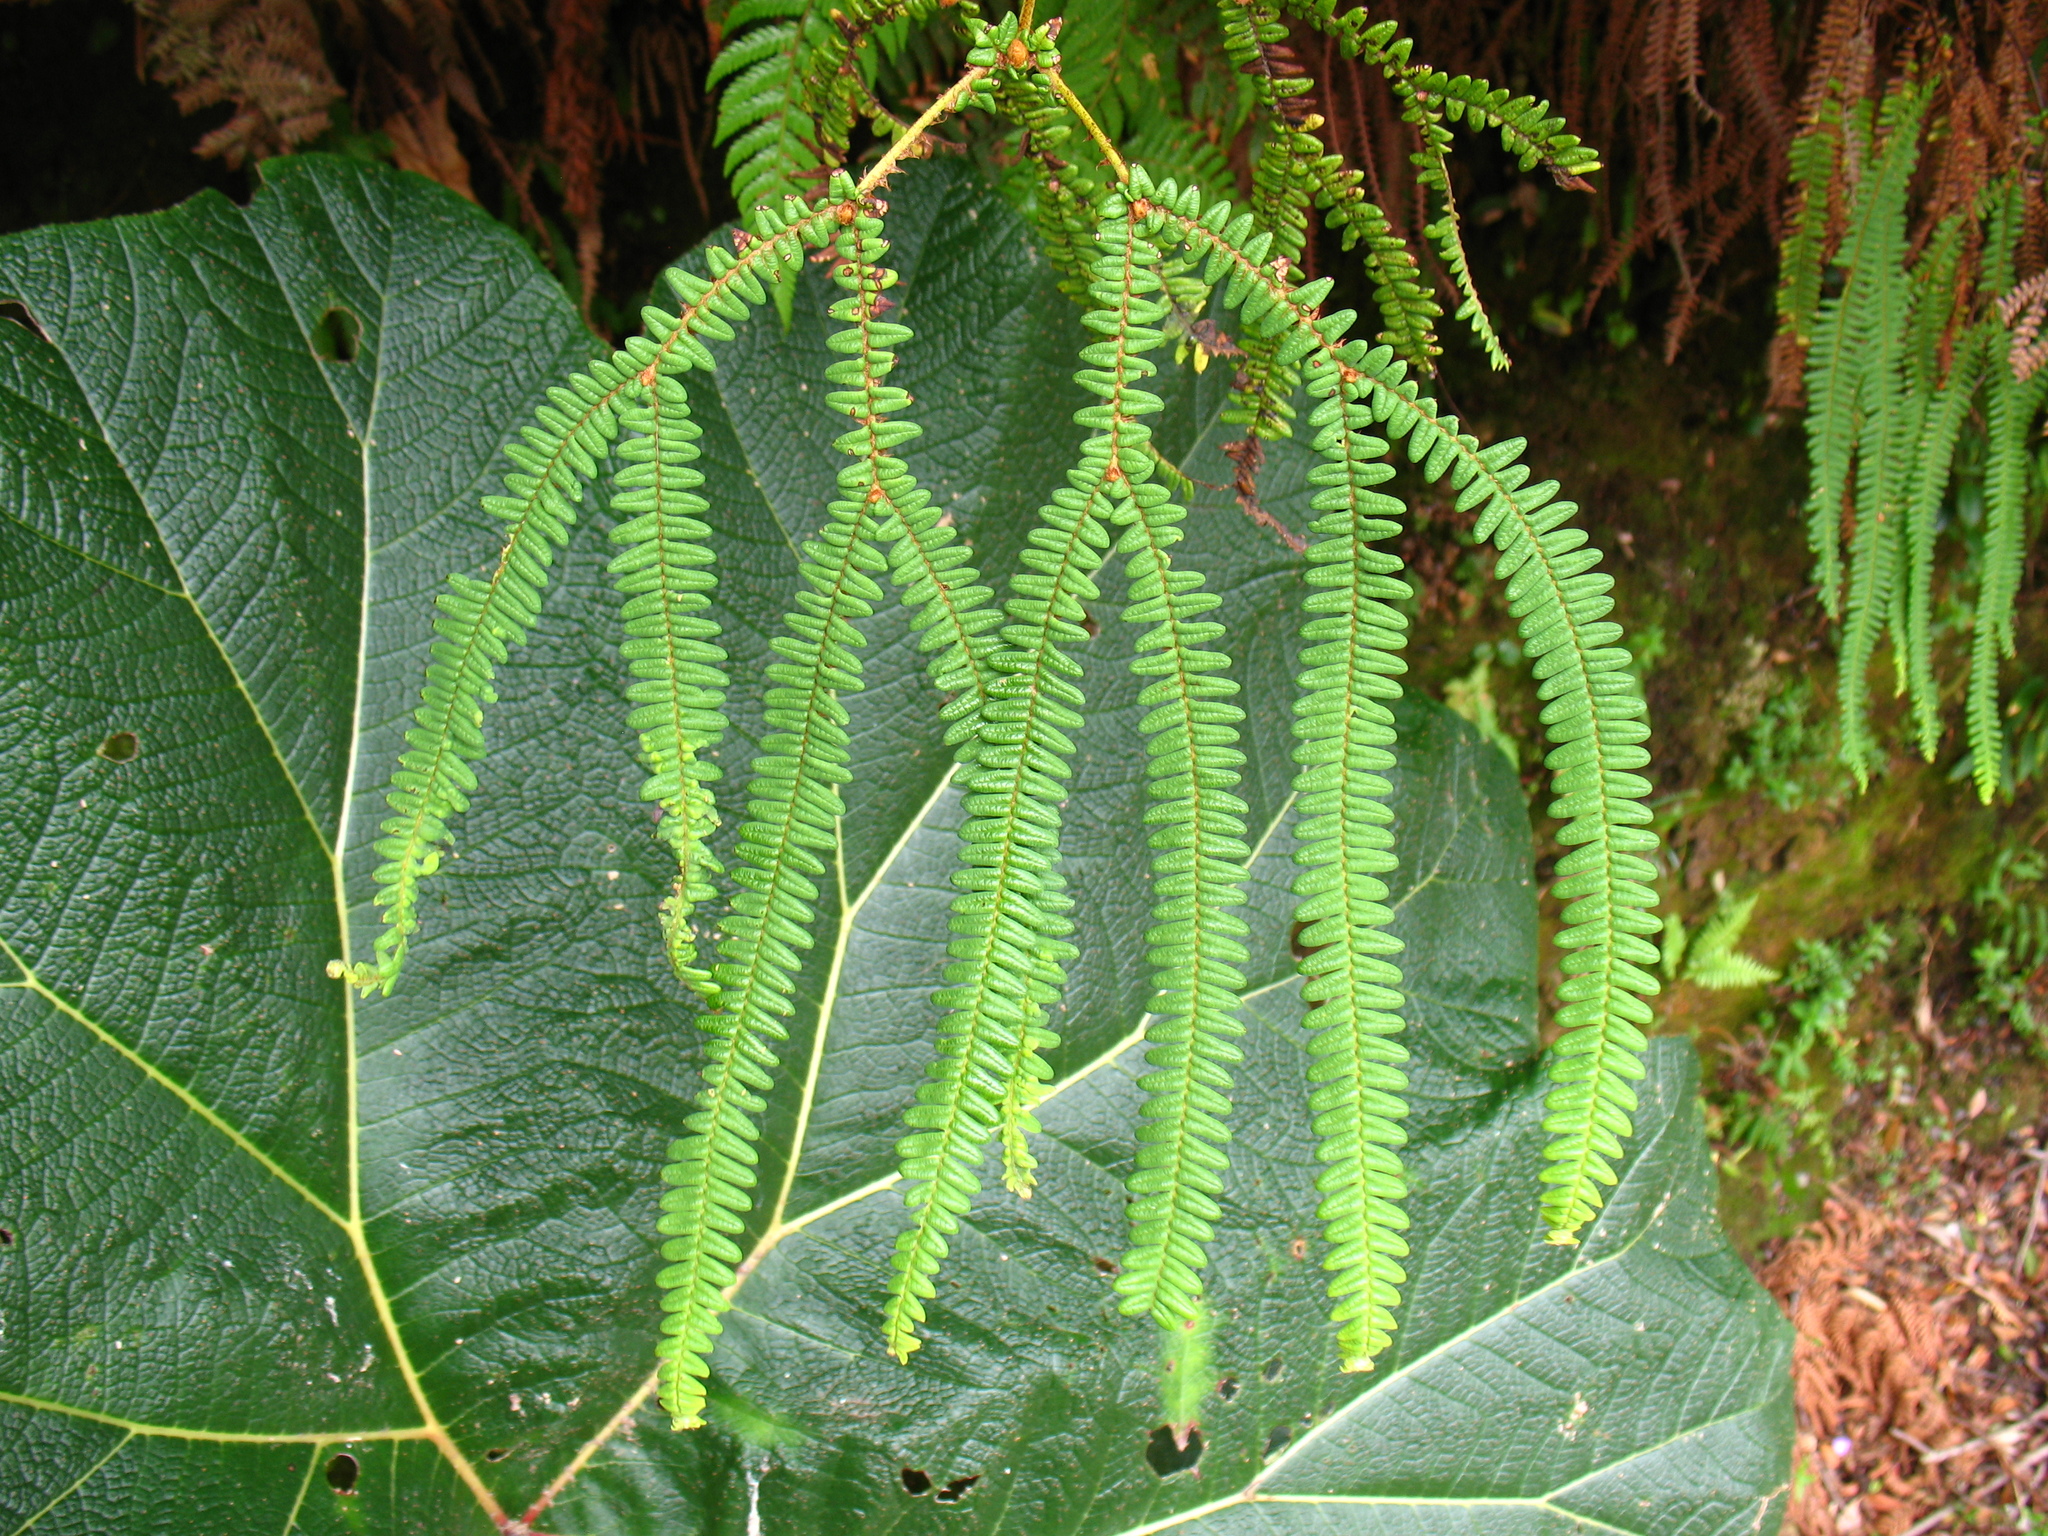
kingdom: Plantae
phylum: Tracheophyta
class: Polypodiopsida
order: Gleicheniales
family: Gleicheniaceae
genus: Sticherus
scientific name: Sticherus revolutus
